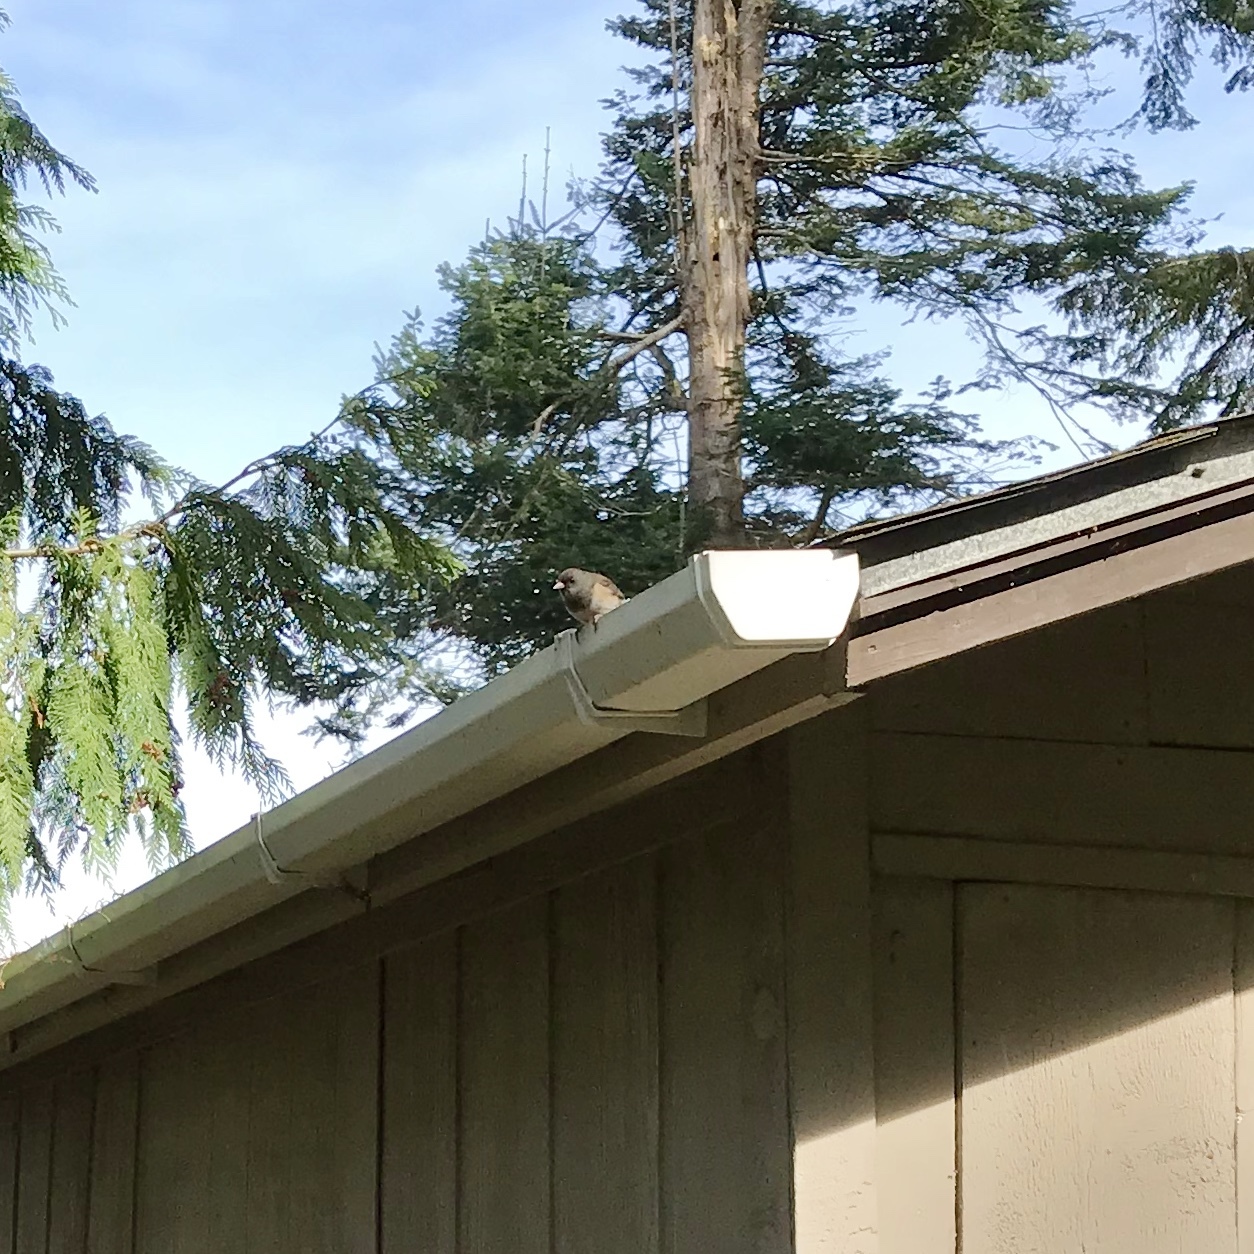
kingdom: Animalia
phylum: Chordata
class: Aves
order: Passeriformes
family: Passerellidae
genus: Junco
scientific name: Junco hyemalis
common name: Dark-eyed junco
